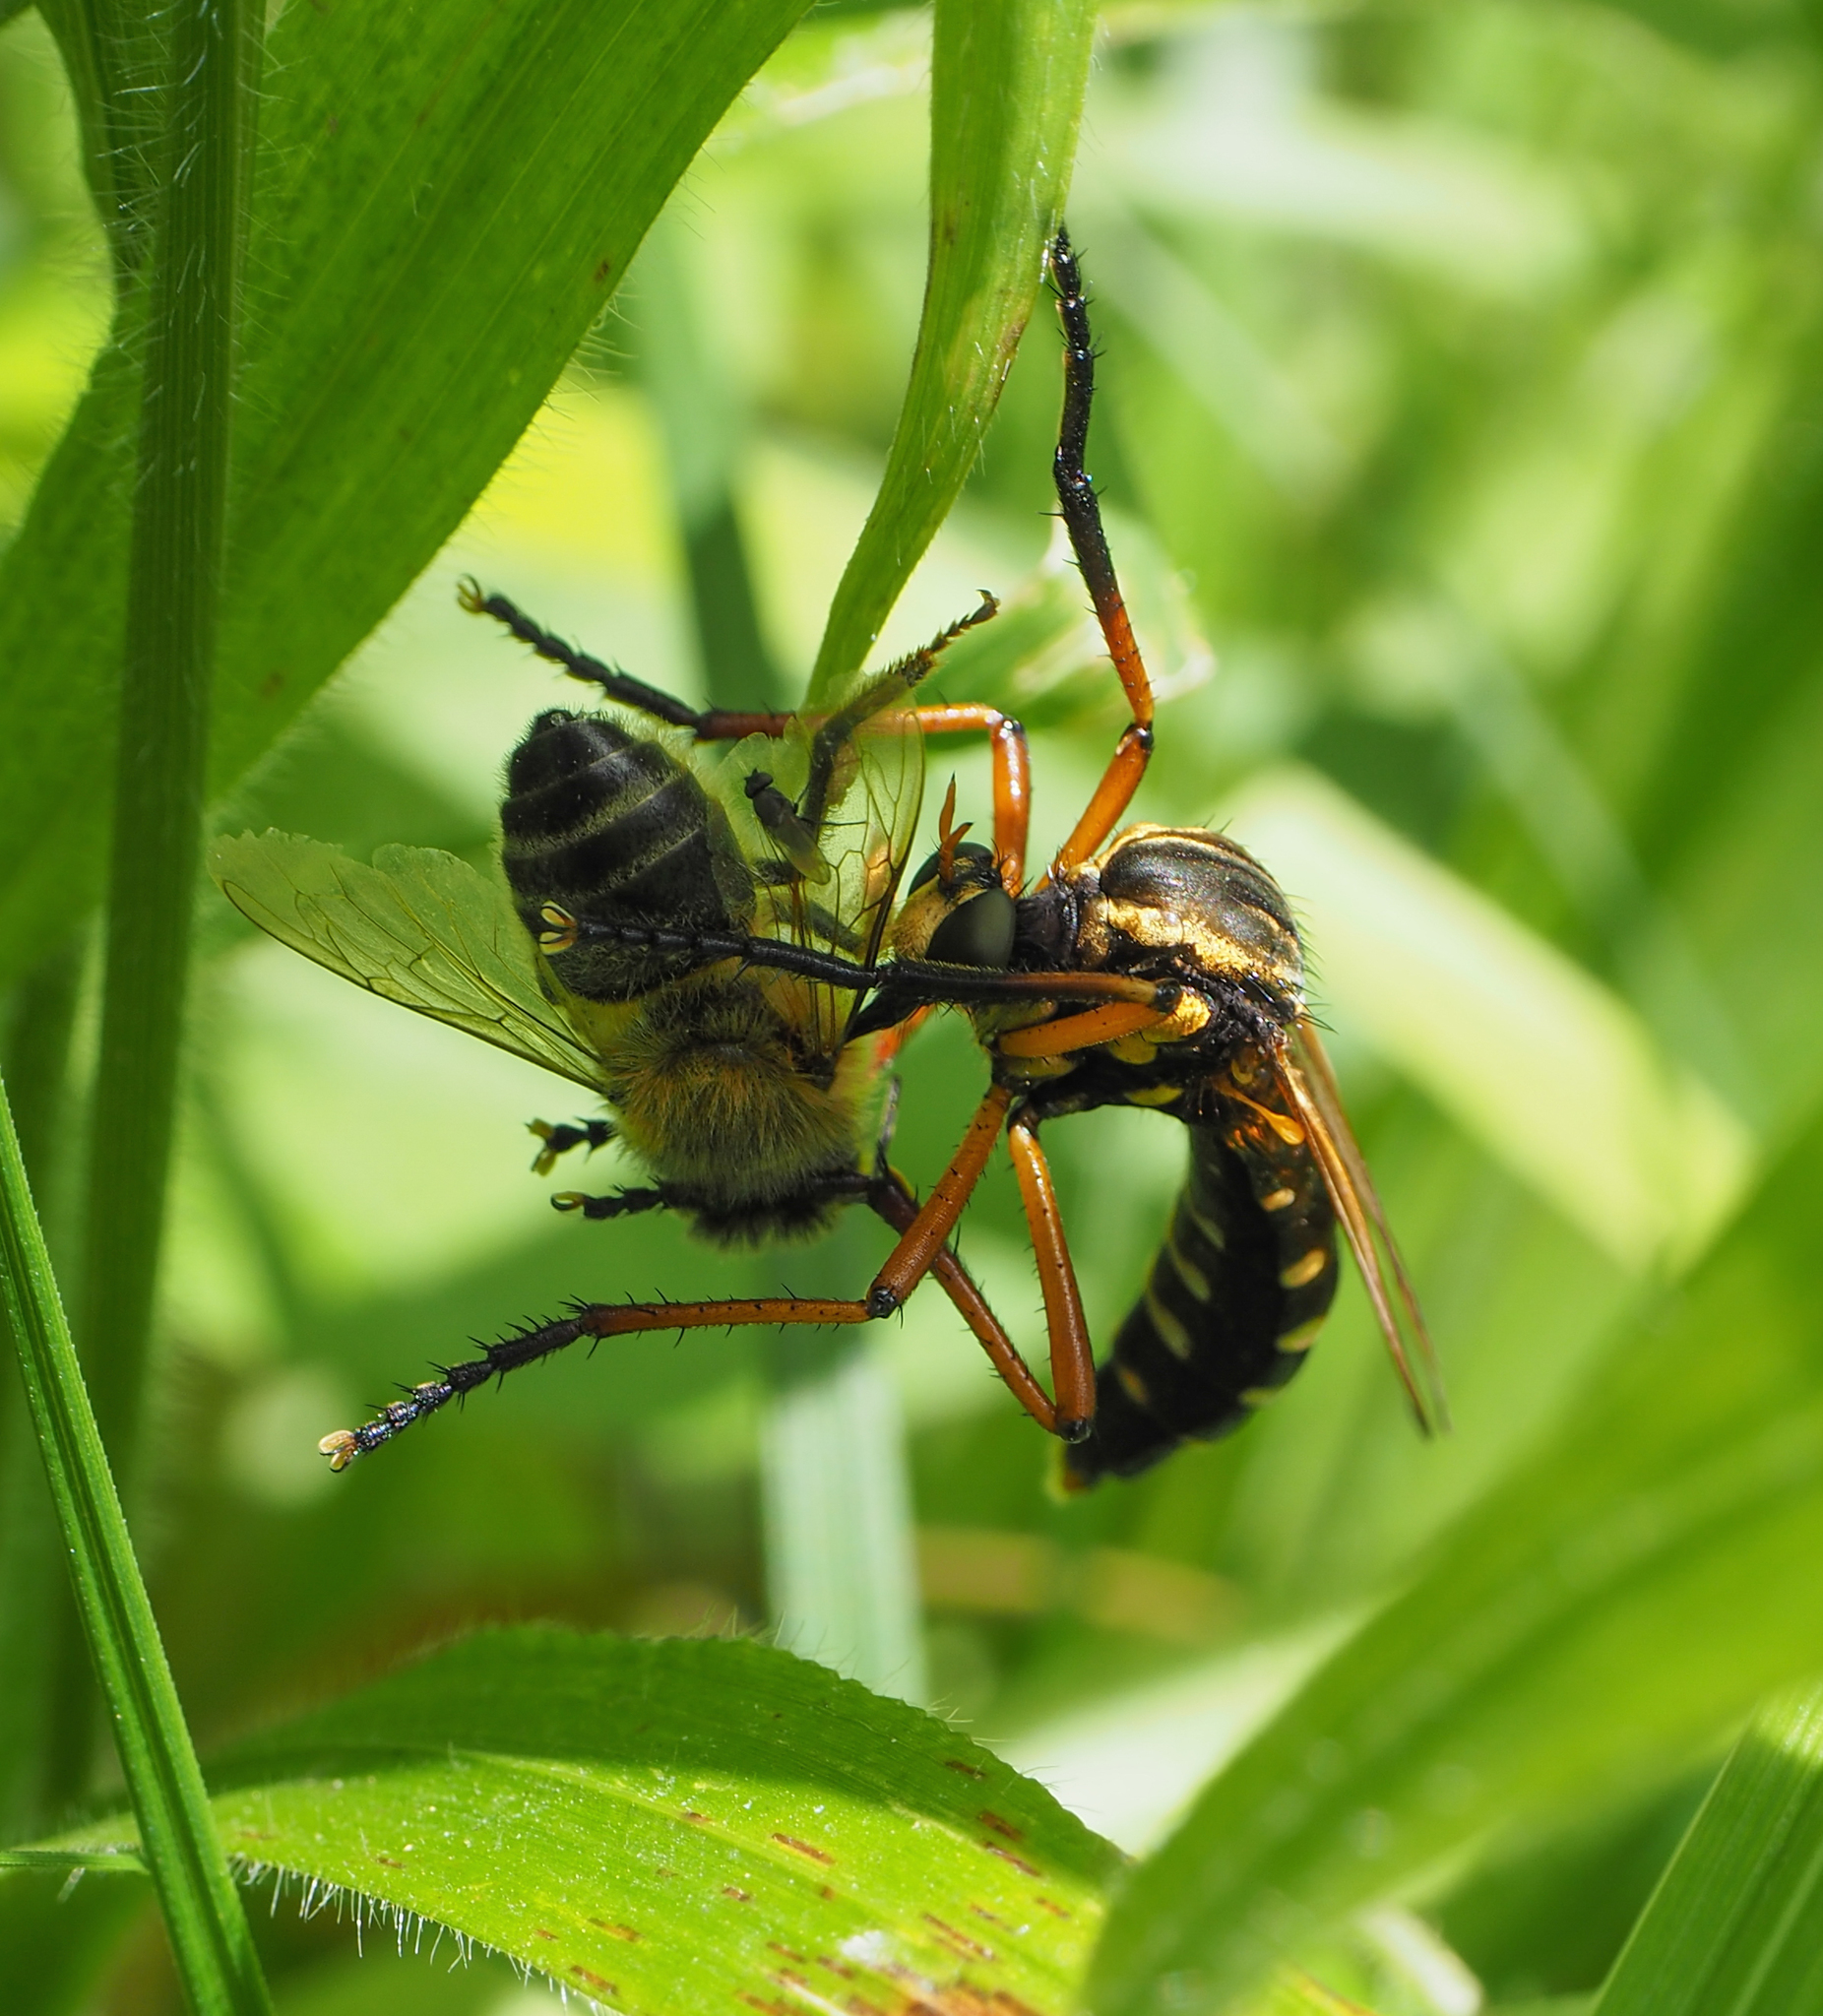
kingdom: Animalia
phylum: Arthropoda
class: Insecta
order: Diptera
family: Asilidae
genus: Molobratia
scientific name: Molobratia teutona
